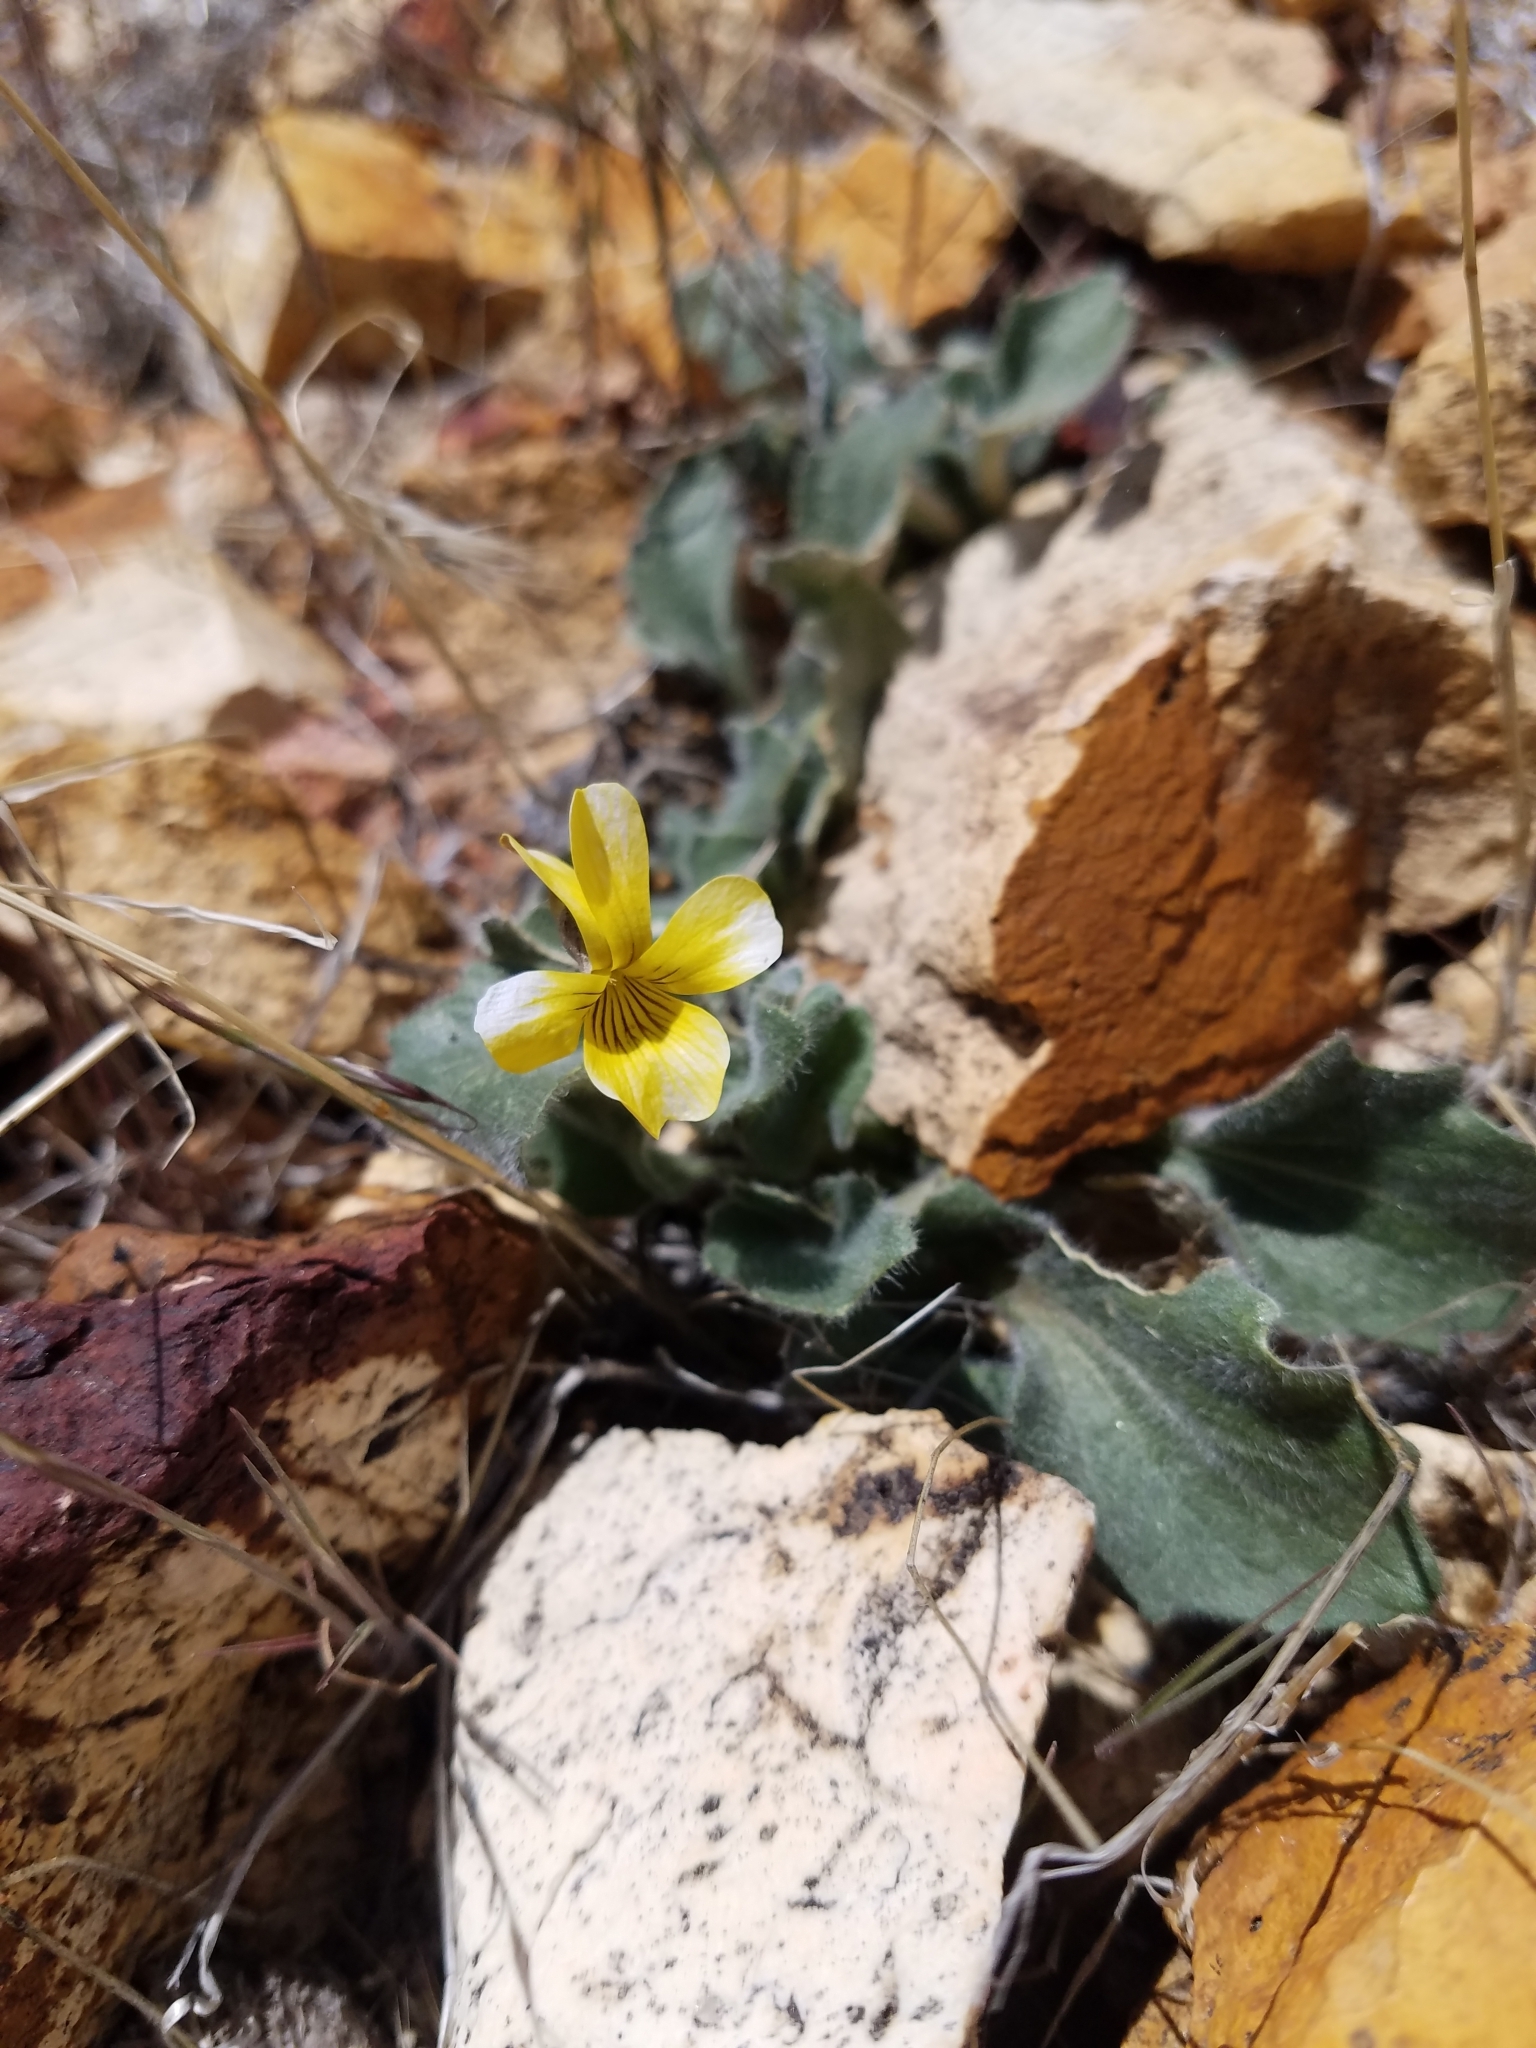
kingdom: Plantae
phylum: Tracheophyta
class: Magnoliopsida
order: Malpighiales
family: Violaceae
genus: Viola
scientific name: Viola aurea
